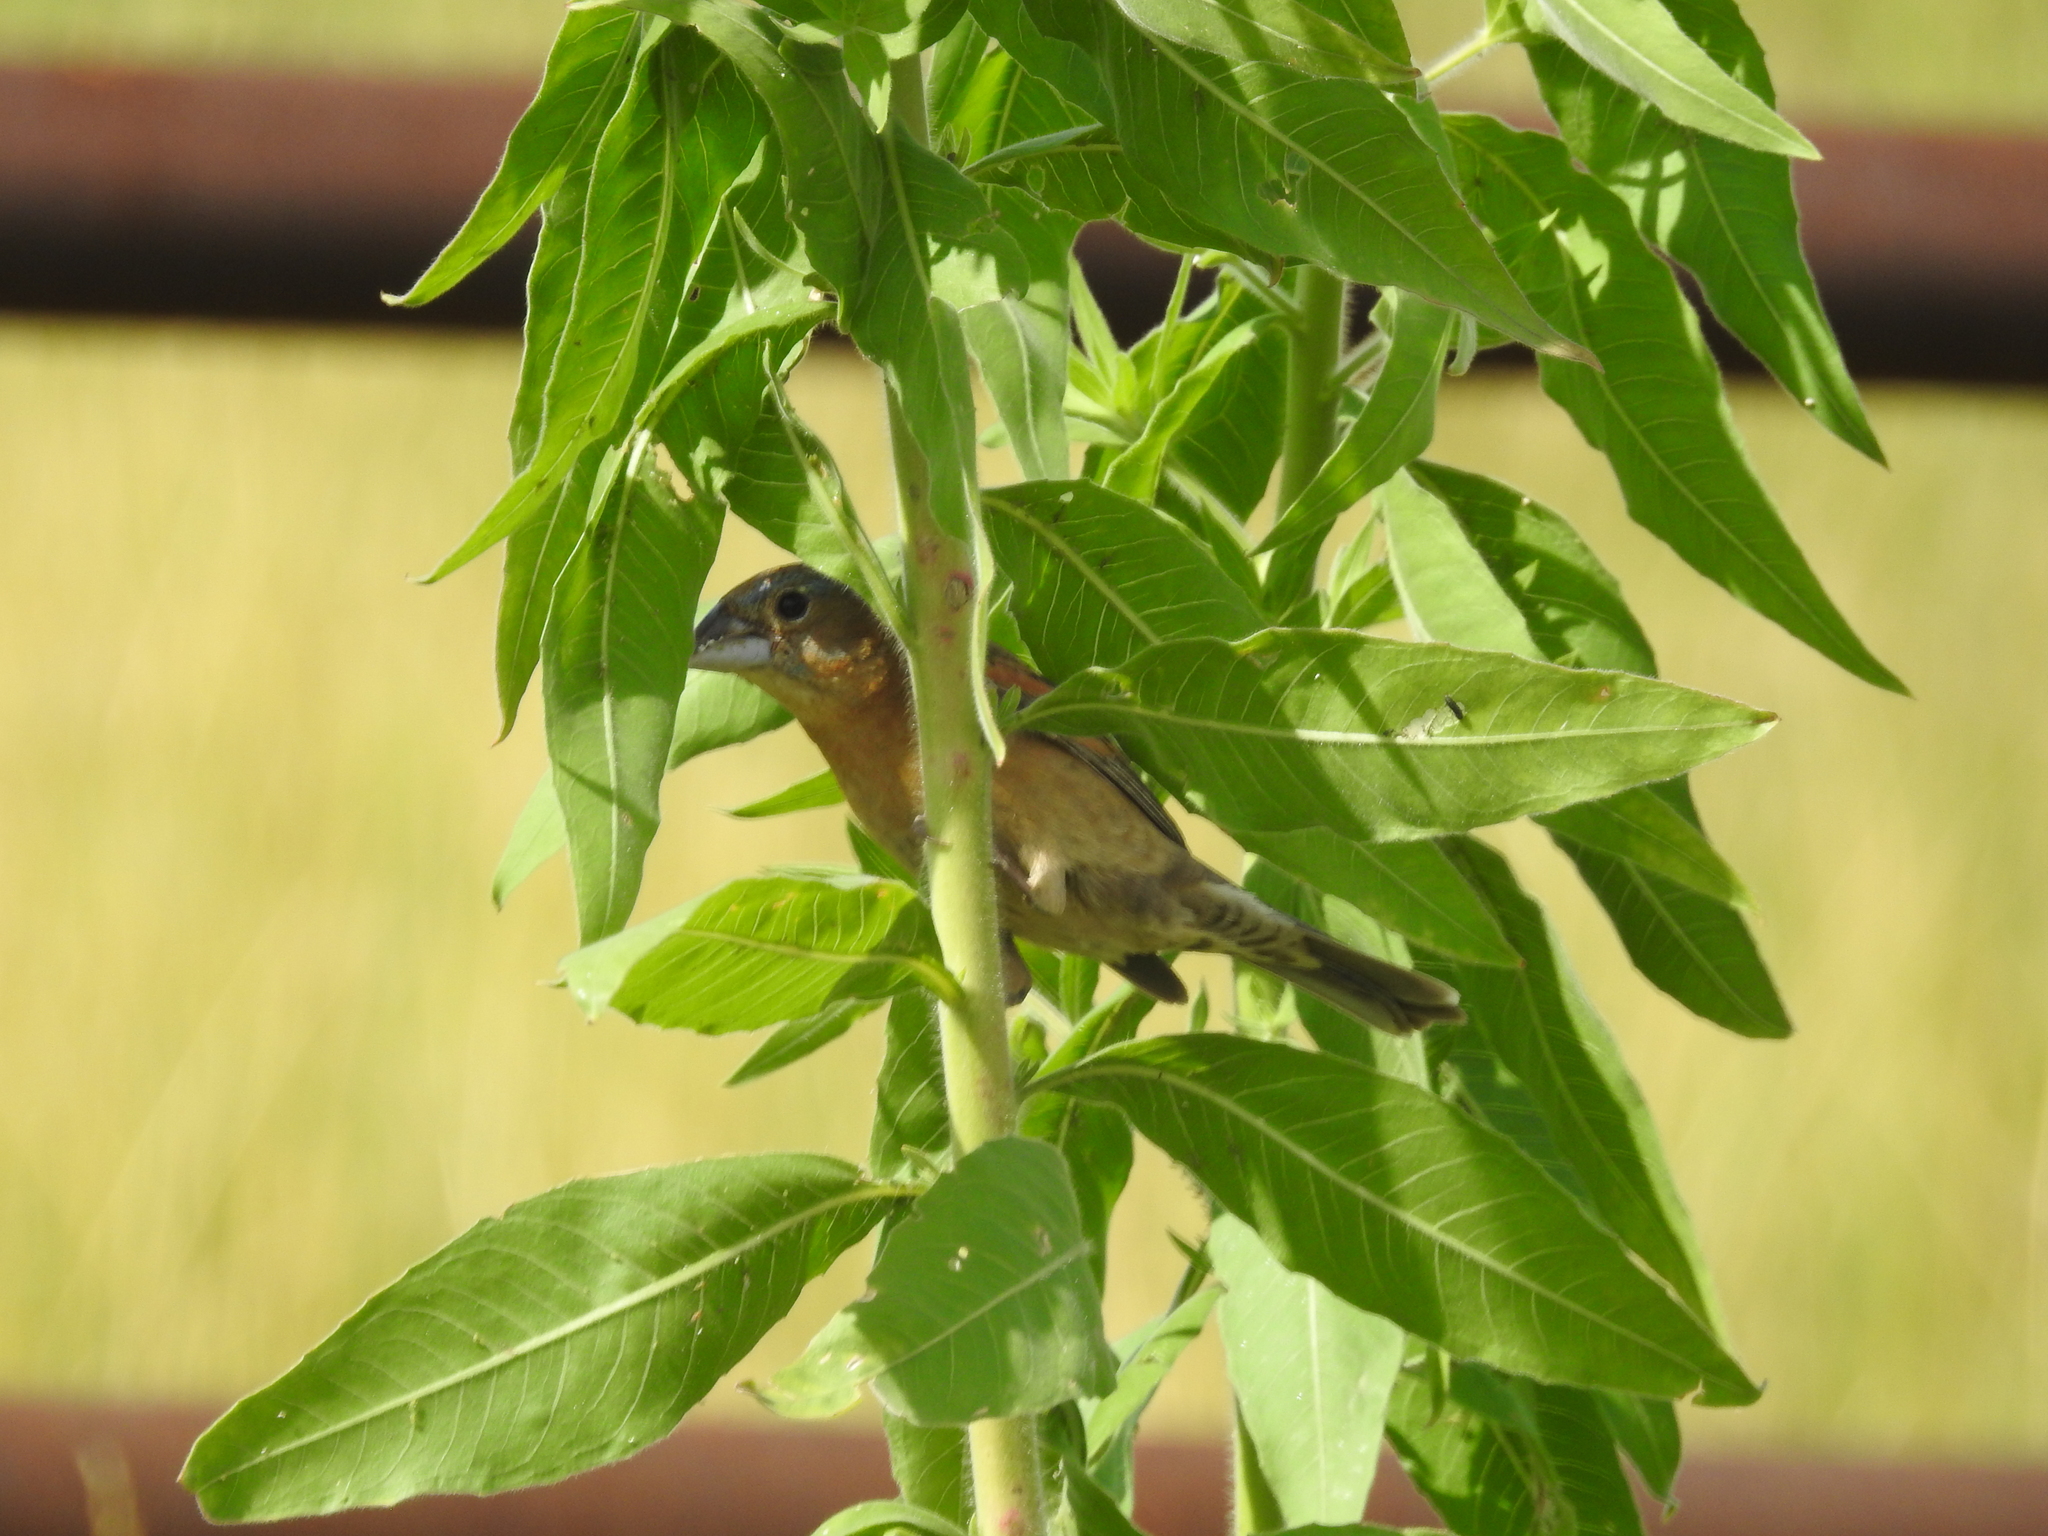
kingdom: Animalia
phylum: Chordata
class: Aves
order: Passeriformes
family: Cardinalidae
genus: Passerina
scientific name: Passerina caerulea
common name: Blue grosbeak
